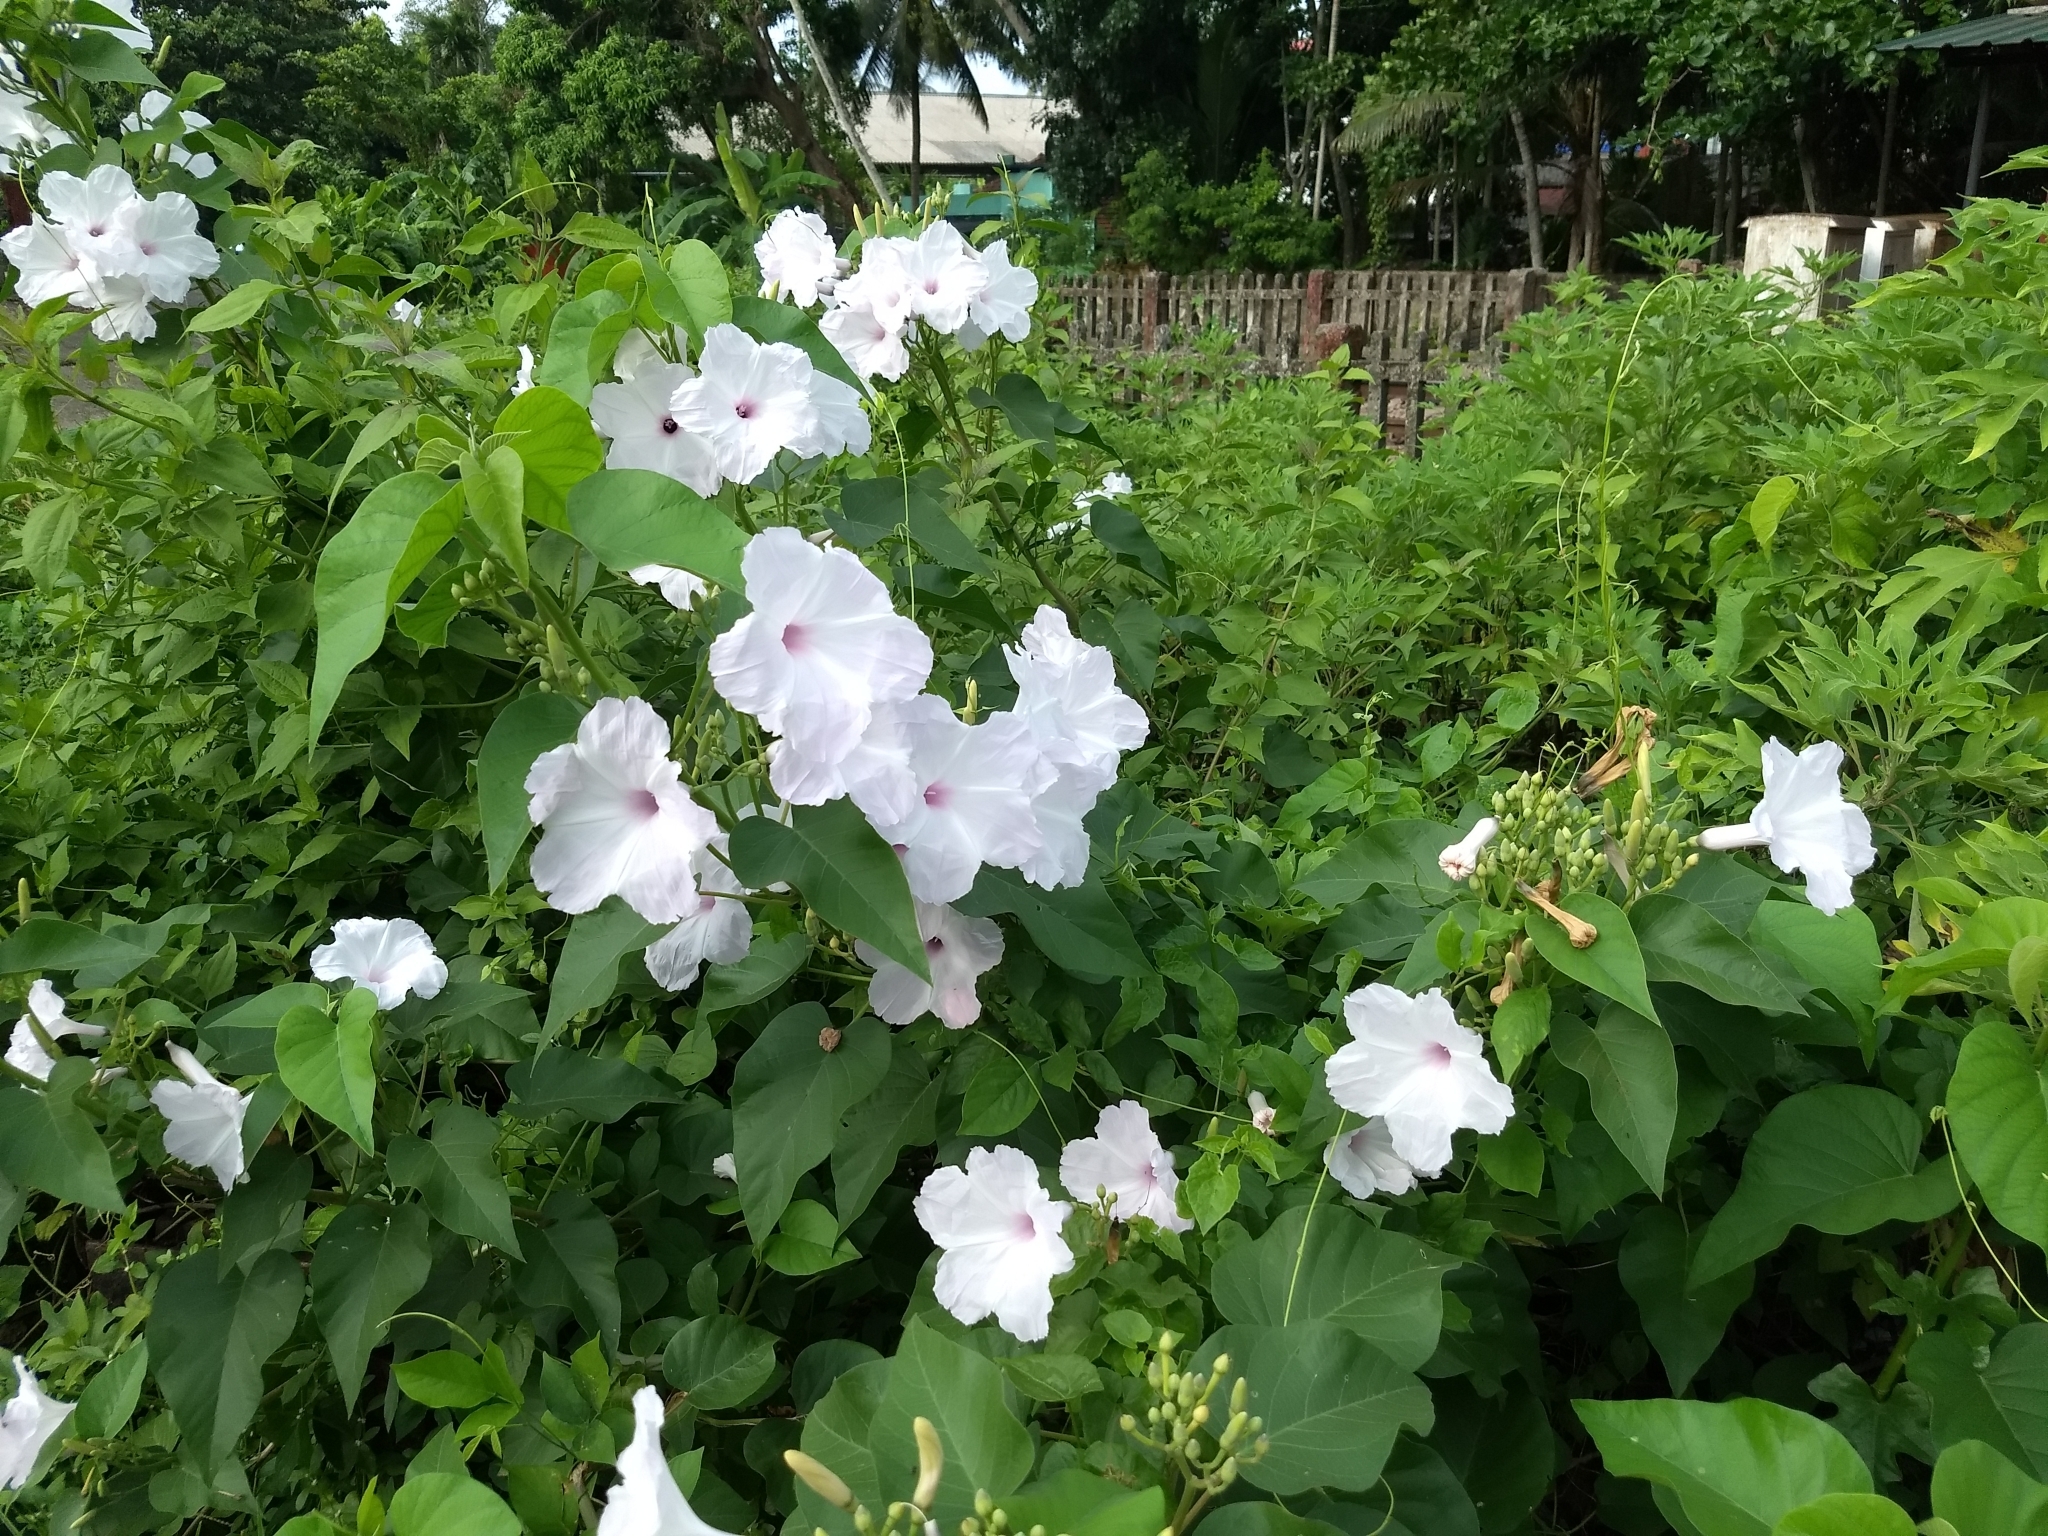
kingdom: Plantae
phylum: Tracheophyta
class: Magnoliopsida
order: Solanales
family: Convolvulaceae
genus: Ipomoea
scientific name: Ipomoea carnea
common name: Morning-glory
